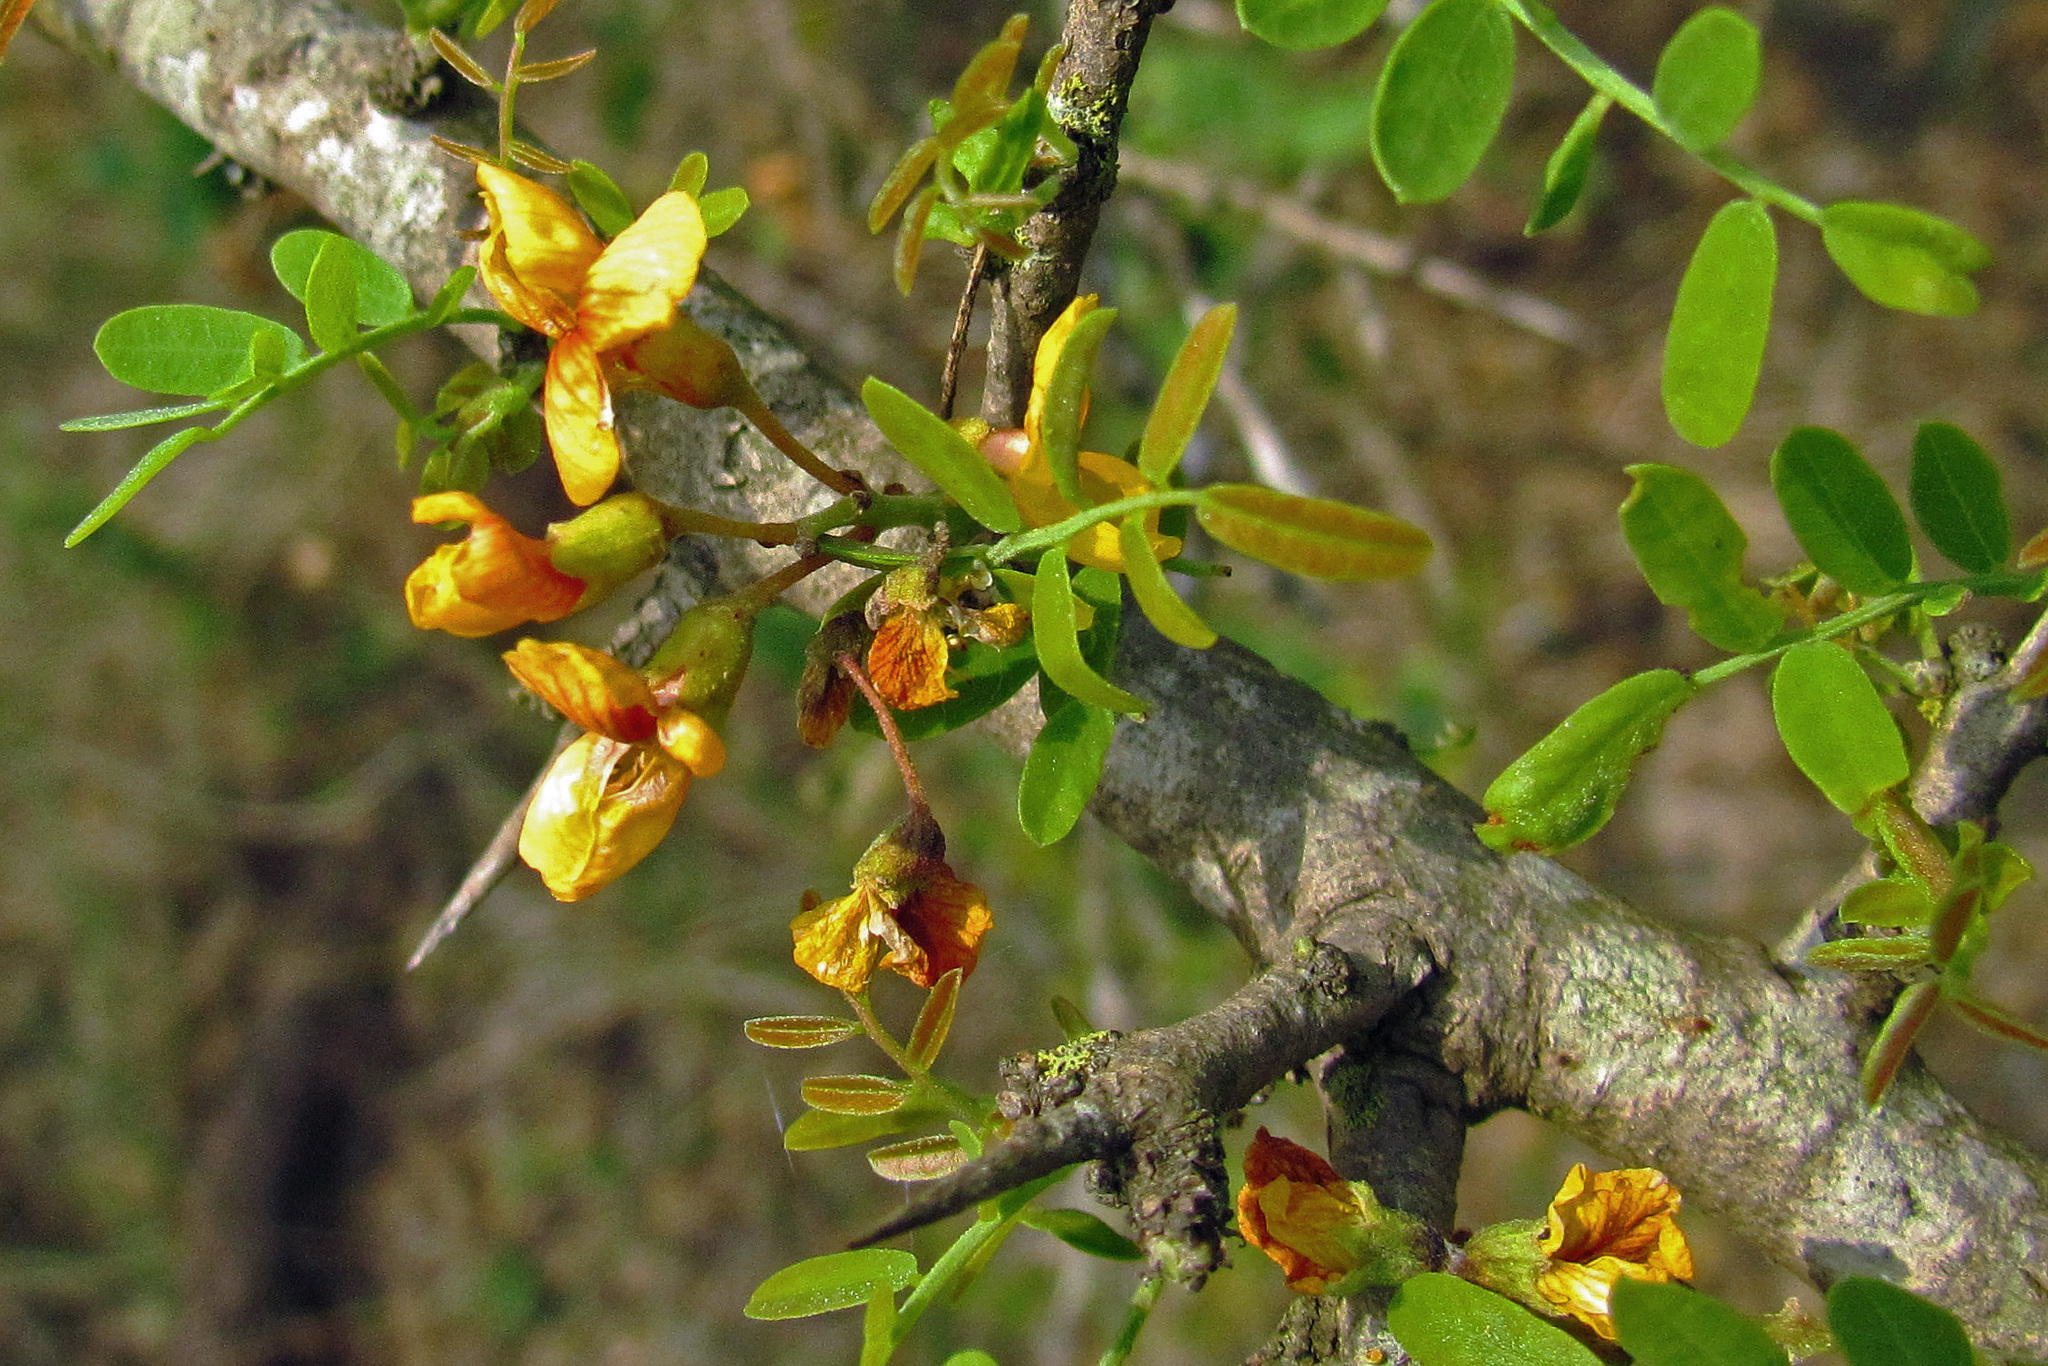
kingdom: Plantae
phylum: Tracheophyta
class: Magnoliopsida
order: Fabales
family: Fabaceae
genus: Geoffroea
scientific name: Geoffroea decorticans
